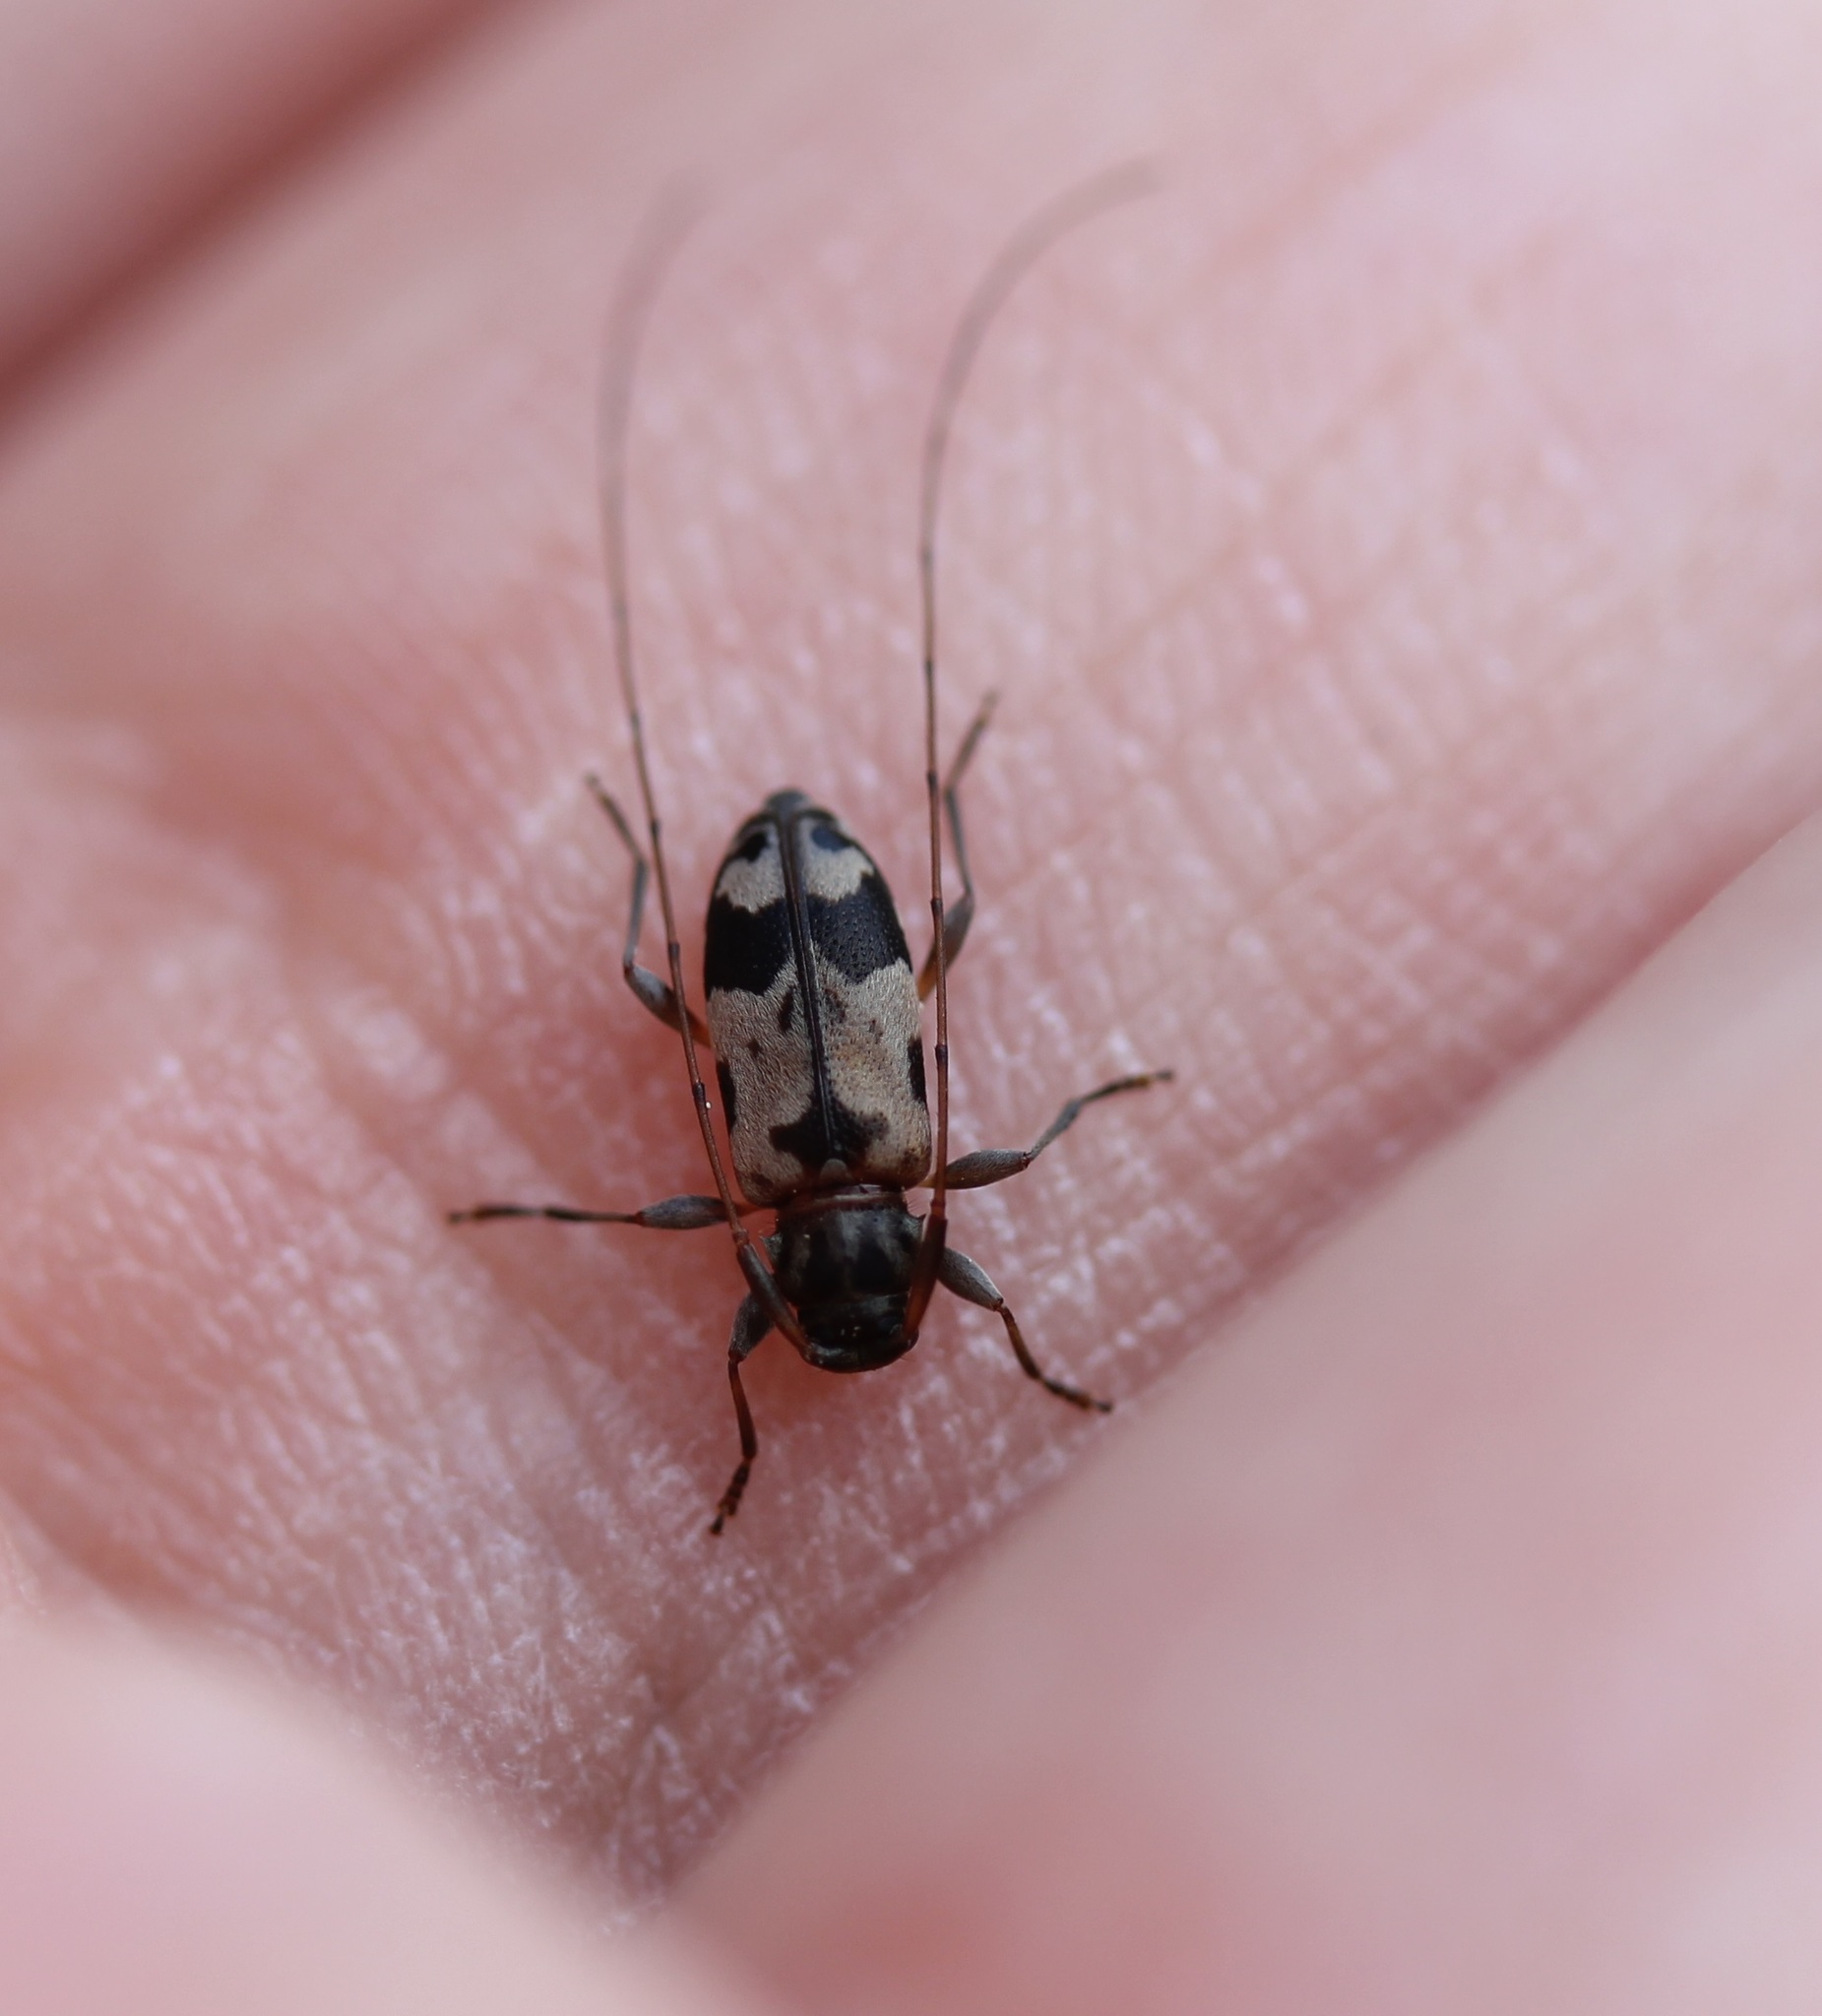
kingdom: Animalia
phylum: Arthropoda
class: Insecta
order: Coleoptera
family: Cerambycidae
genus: Urgleptes
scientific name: Urgleptes querci
